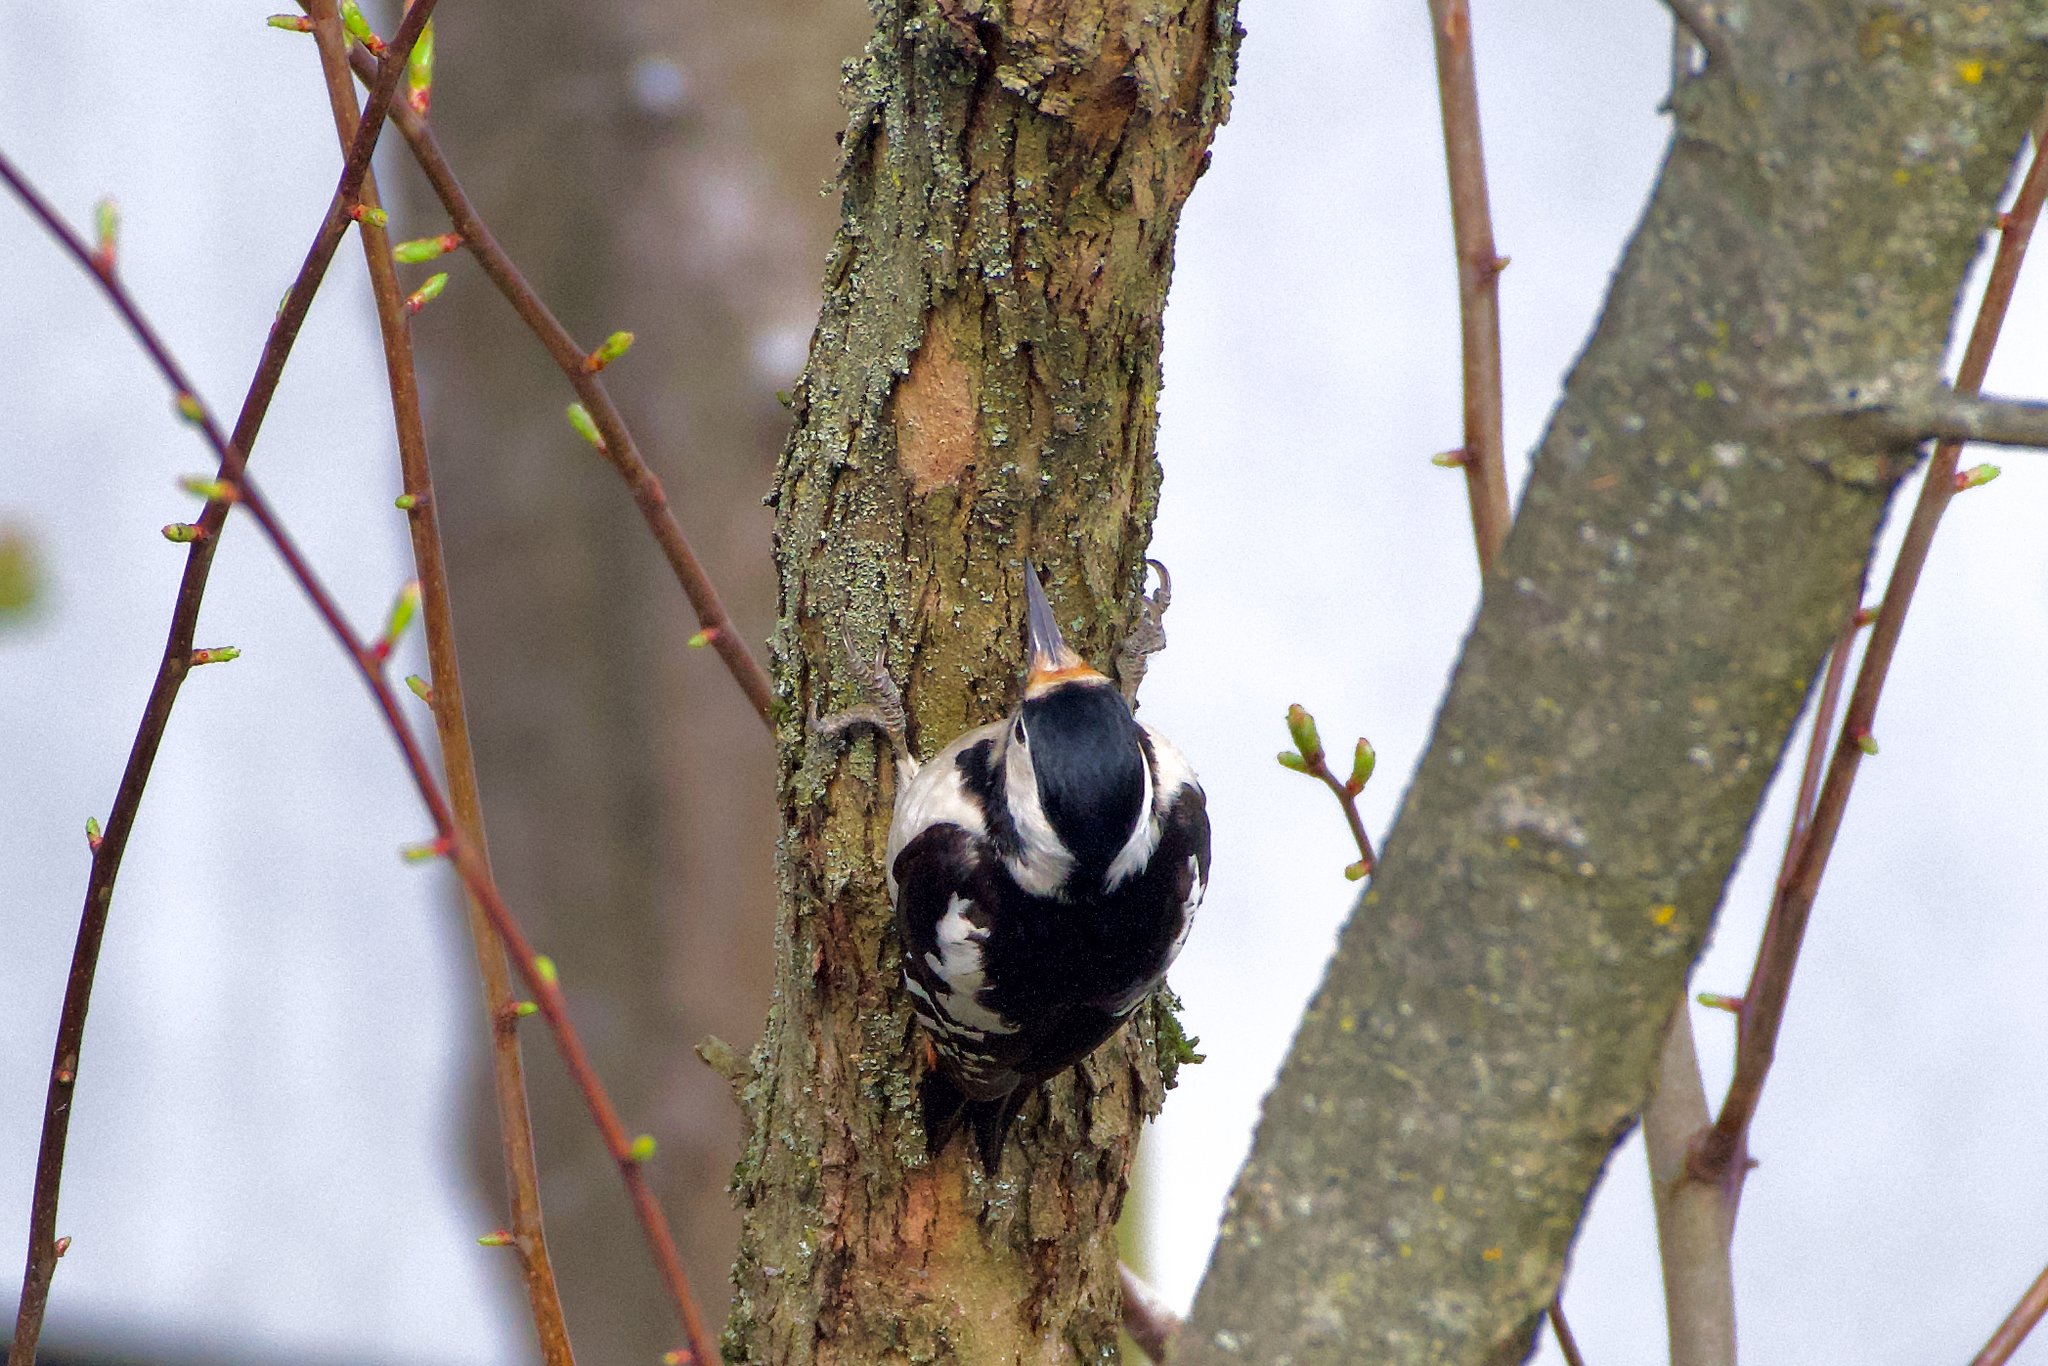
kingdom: Animalia
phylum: Chordata
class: Aves
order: Piciformes
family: Picidae
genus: Dendrocopos
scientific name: Dendrocopos syriacus
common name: Syrian woodpecker
